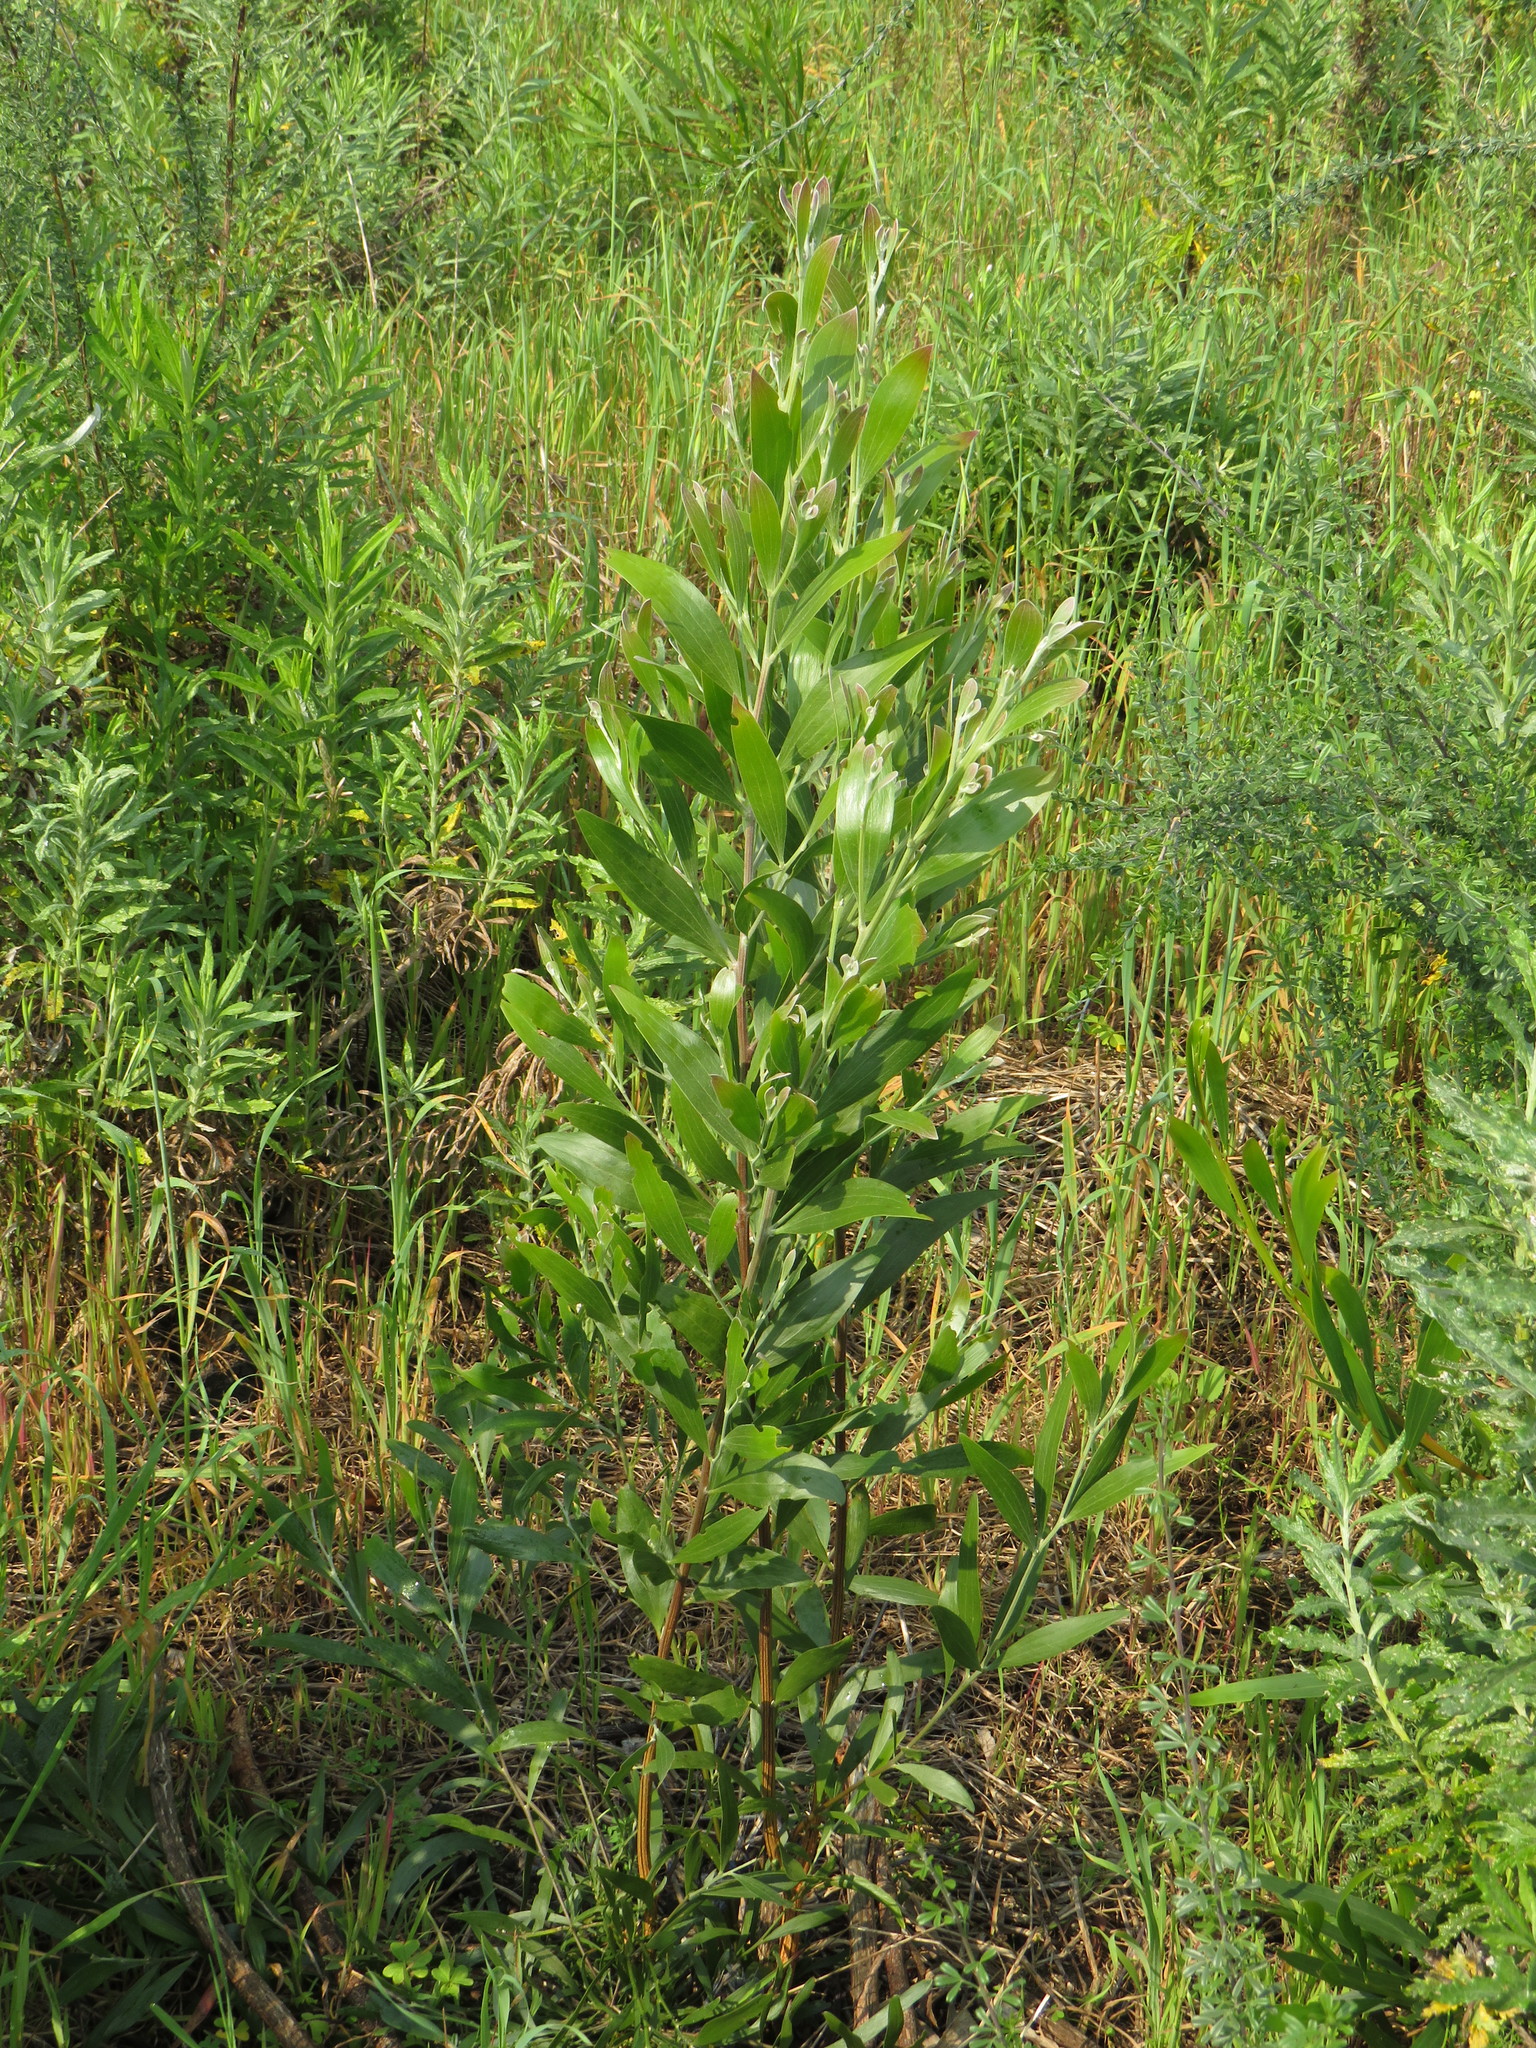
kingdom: Plantae
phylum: Tracheophyta
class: Magnoliopsida
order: Fabales
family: Fabaceae
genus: Acacia
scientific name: Acacia melanoxylon
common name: Blackwood
